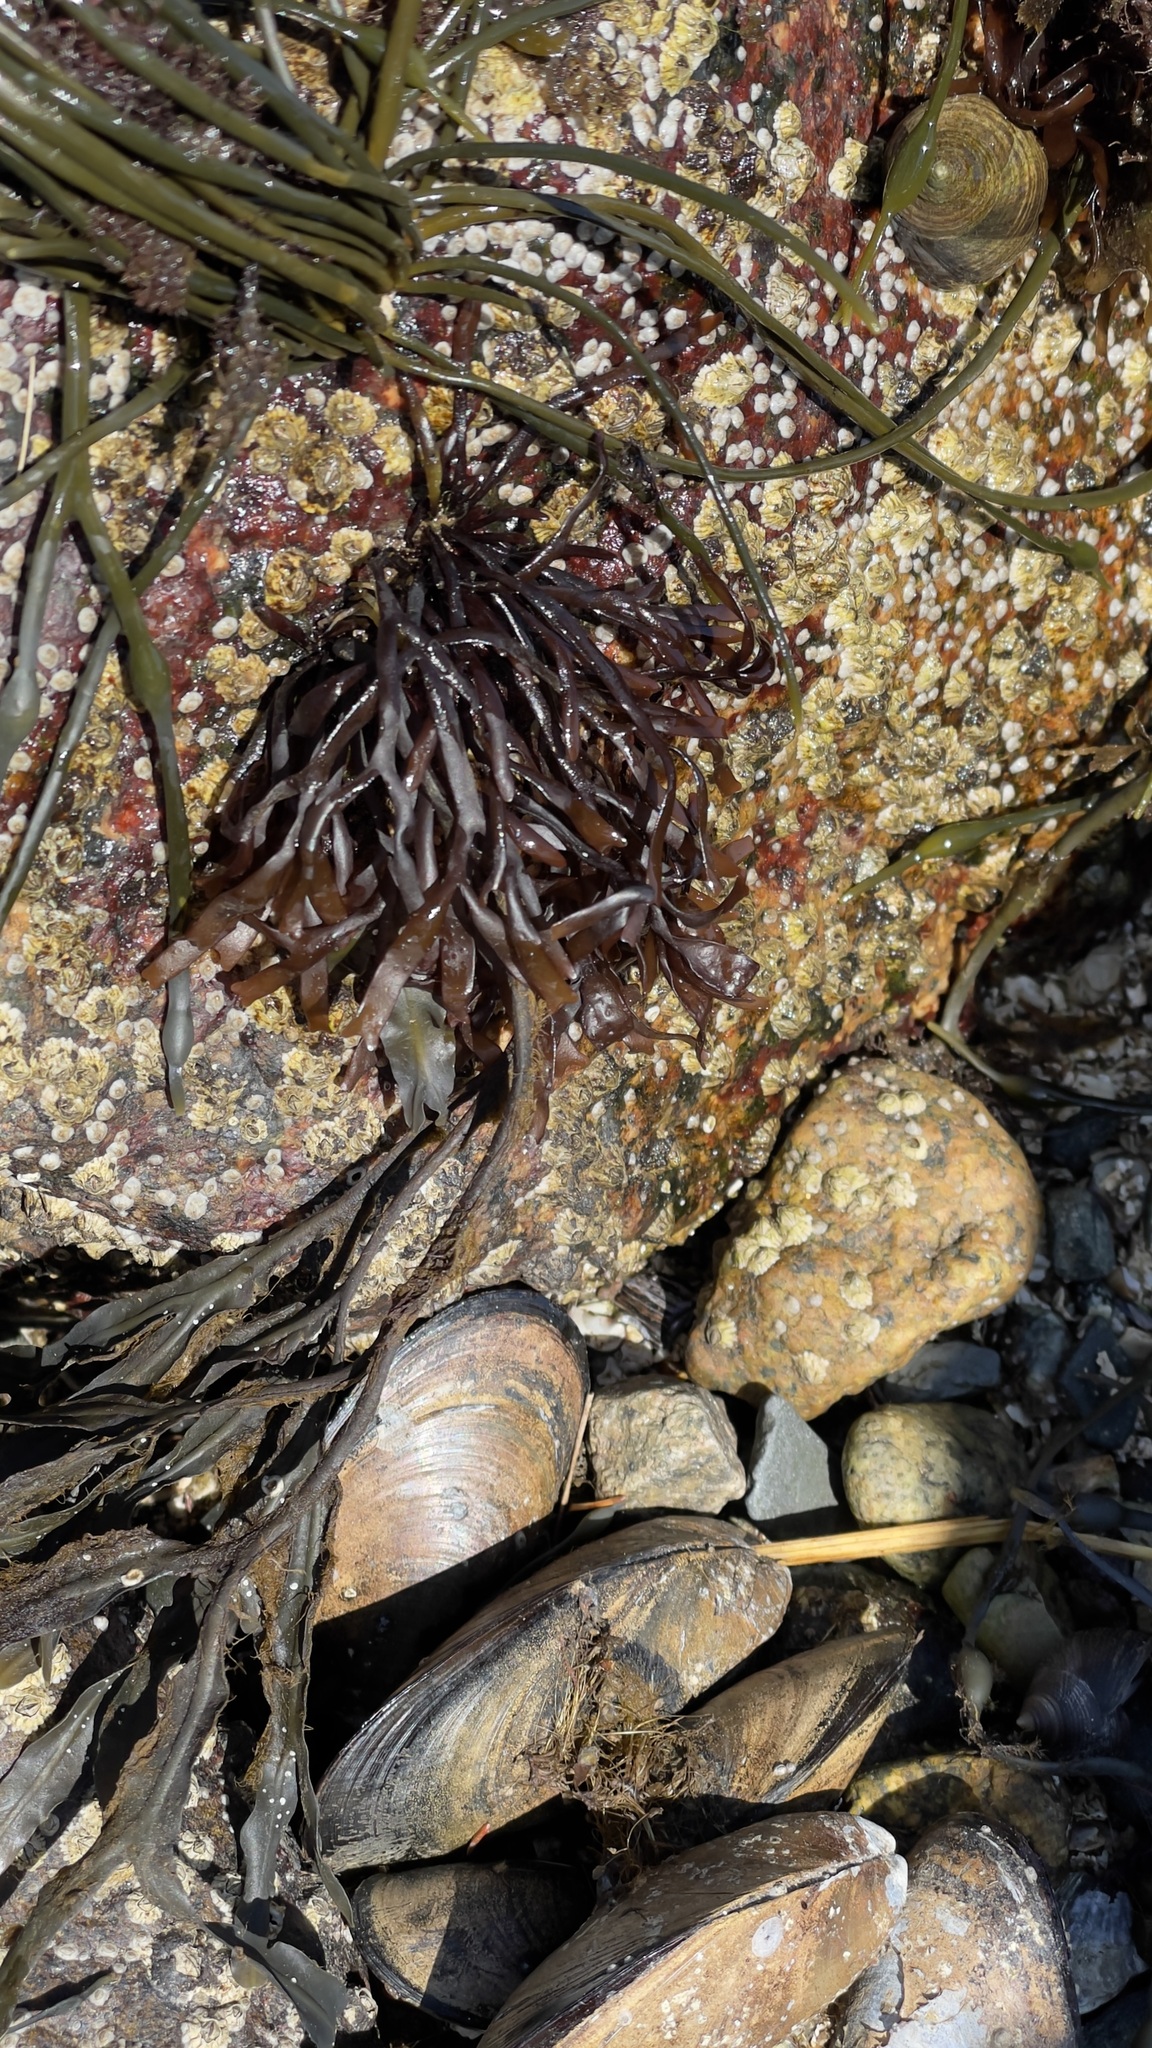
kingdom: Plantae
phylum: Rhodophyta
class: Florideophyceae
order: Gigartinales
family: Gigartinaceae
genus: Chondrus
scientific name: Chondrus crispus
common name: Carrageen
